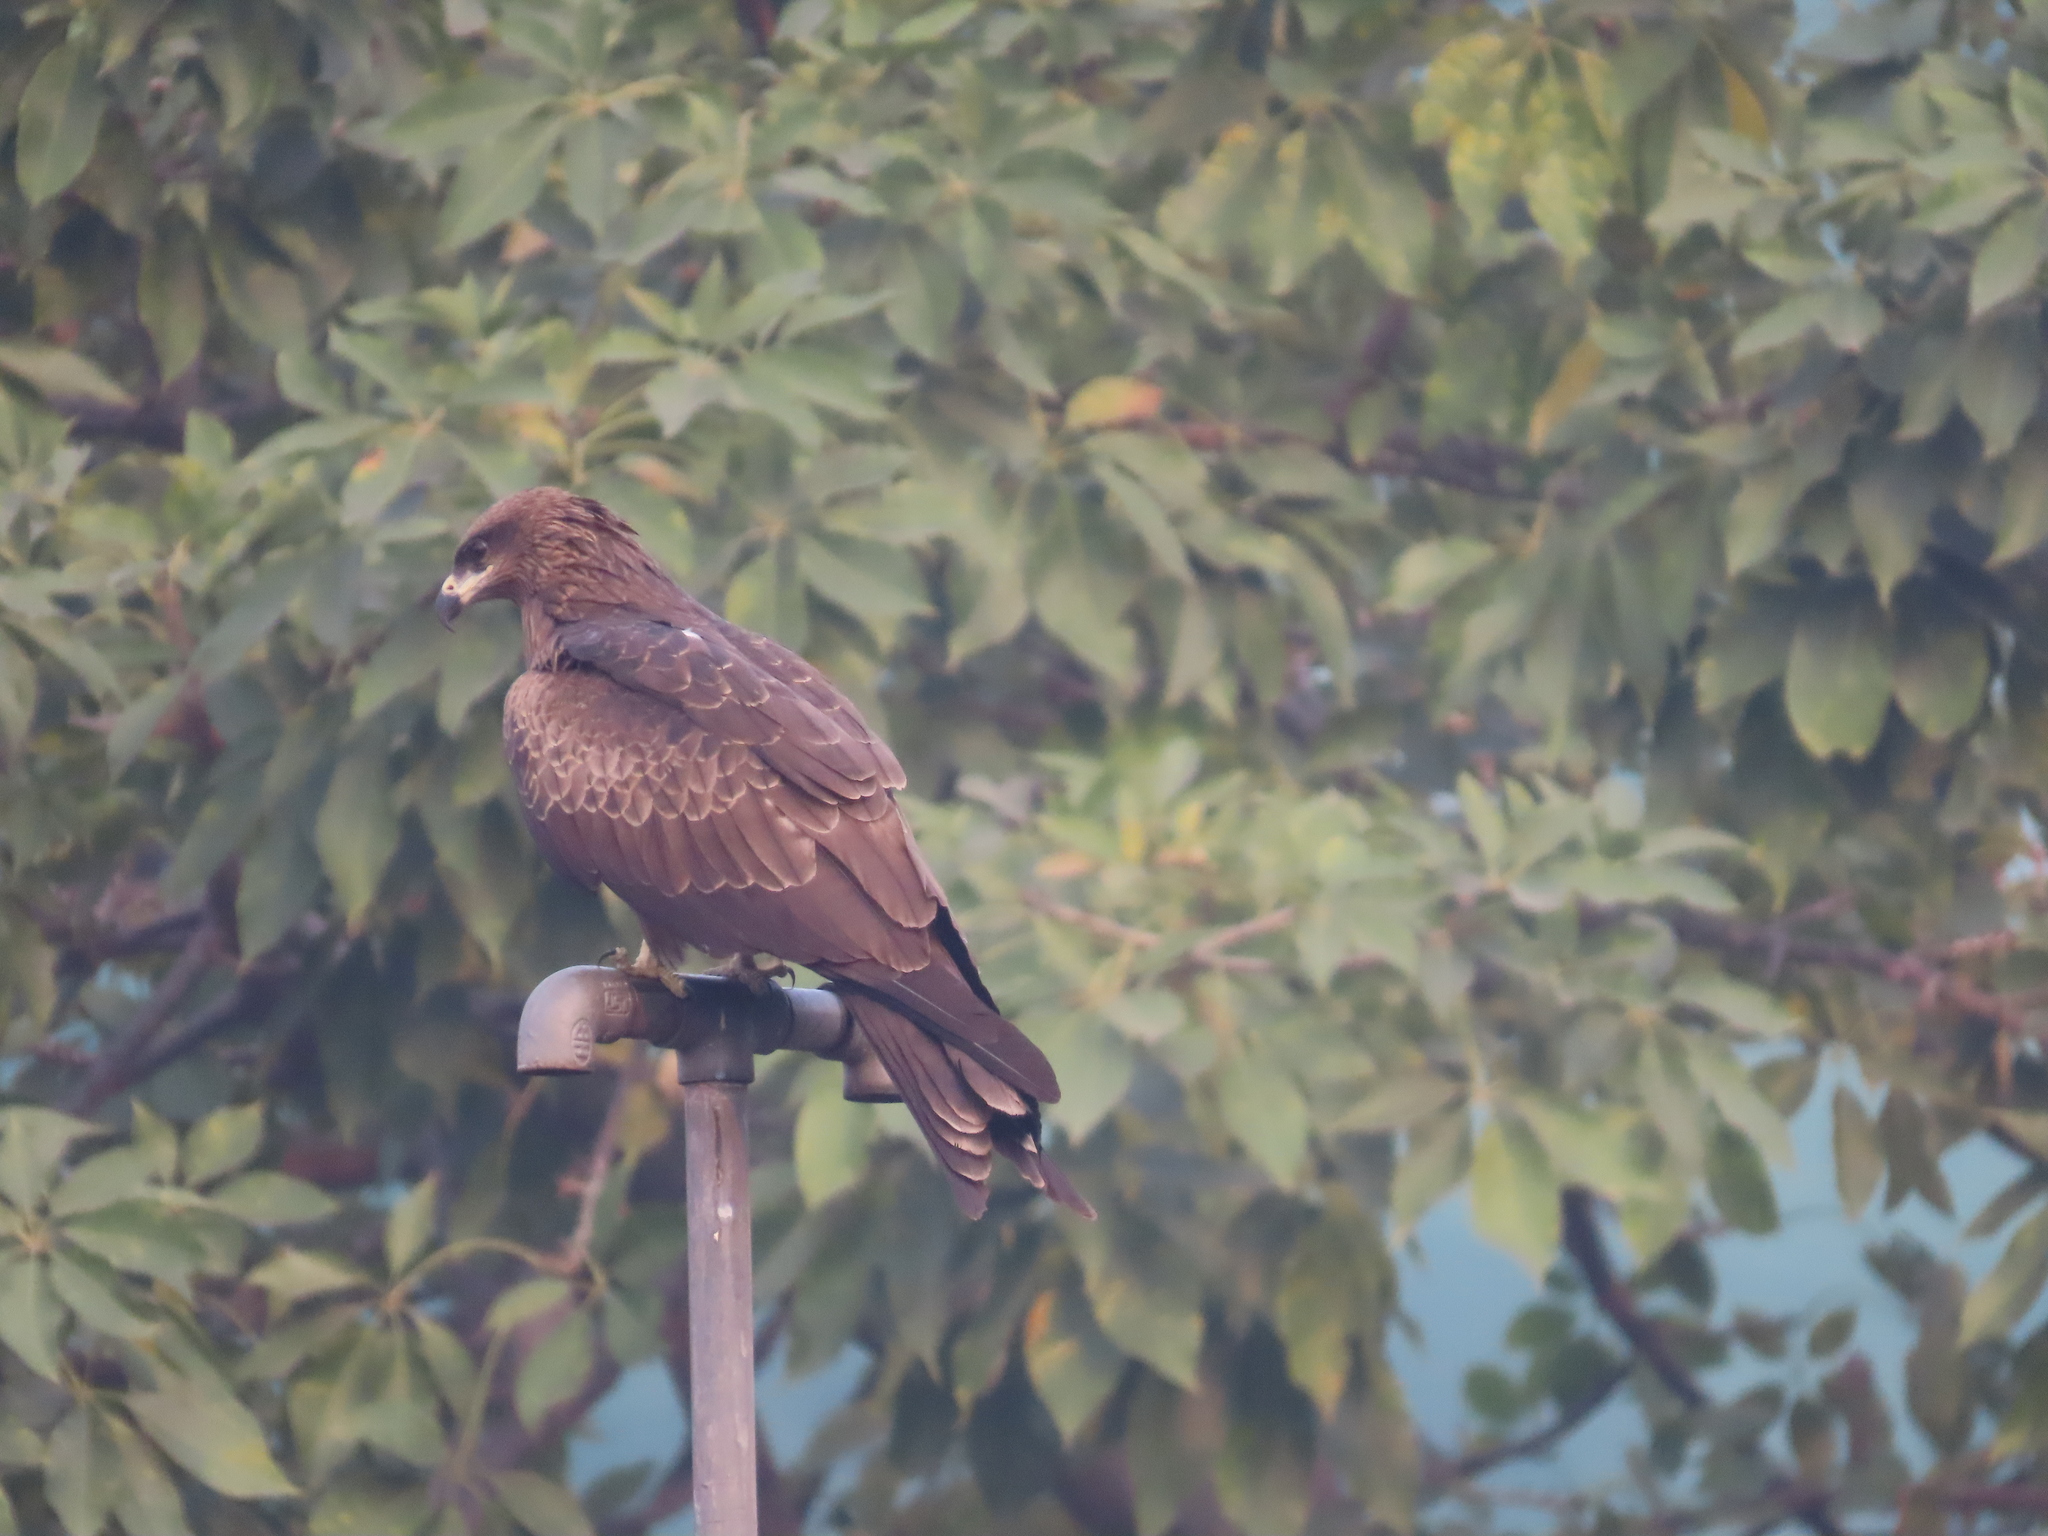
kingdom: Animalia
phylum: Chordata
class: Aves
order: Accipitriformes
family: Accipitridae
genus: Milvus
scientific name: Milvus migrans
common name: Black kite
